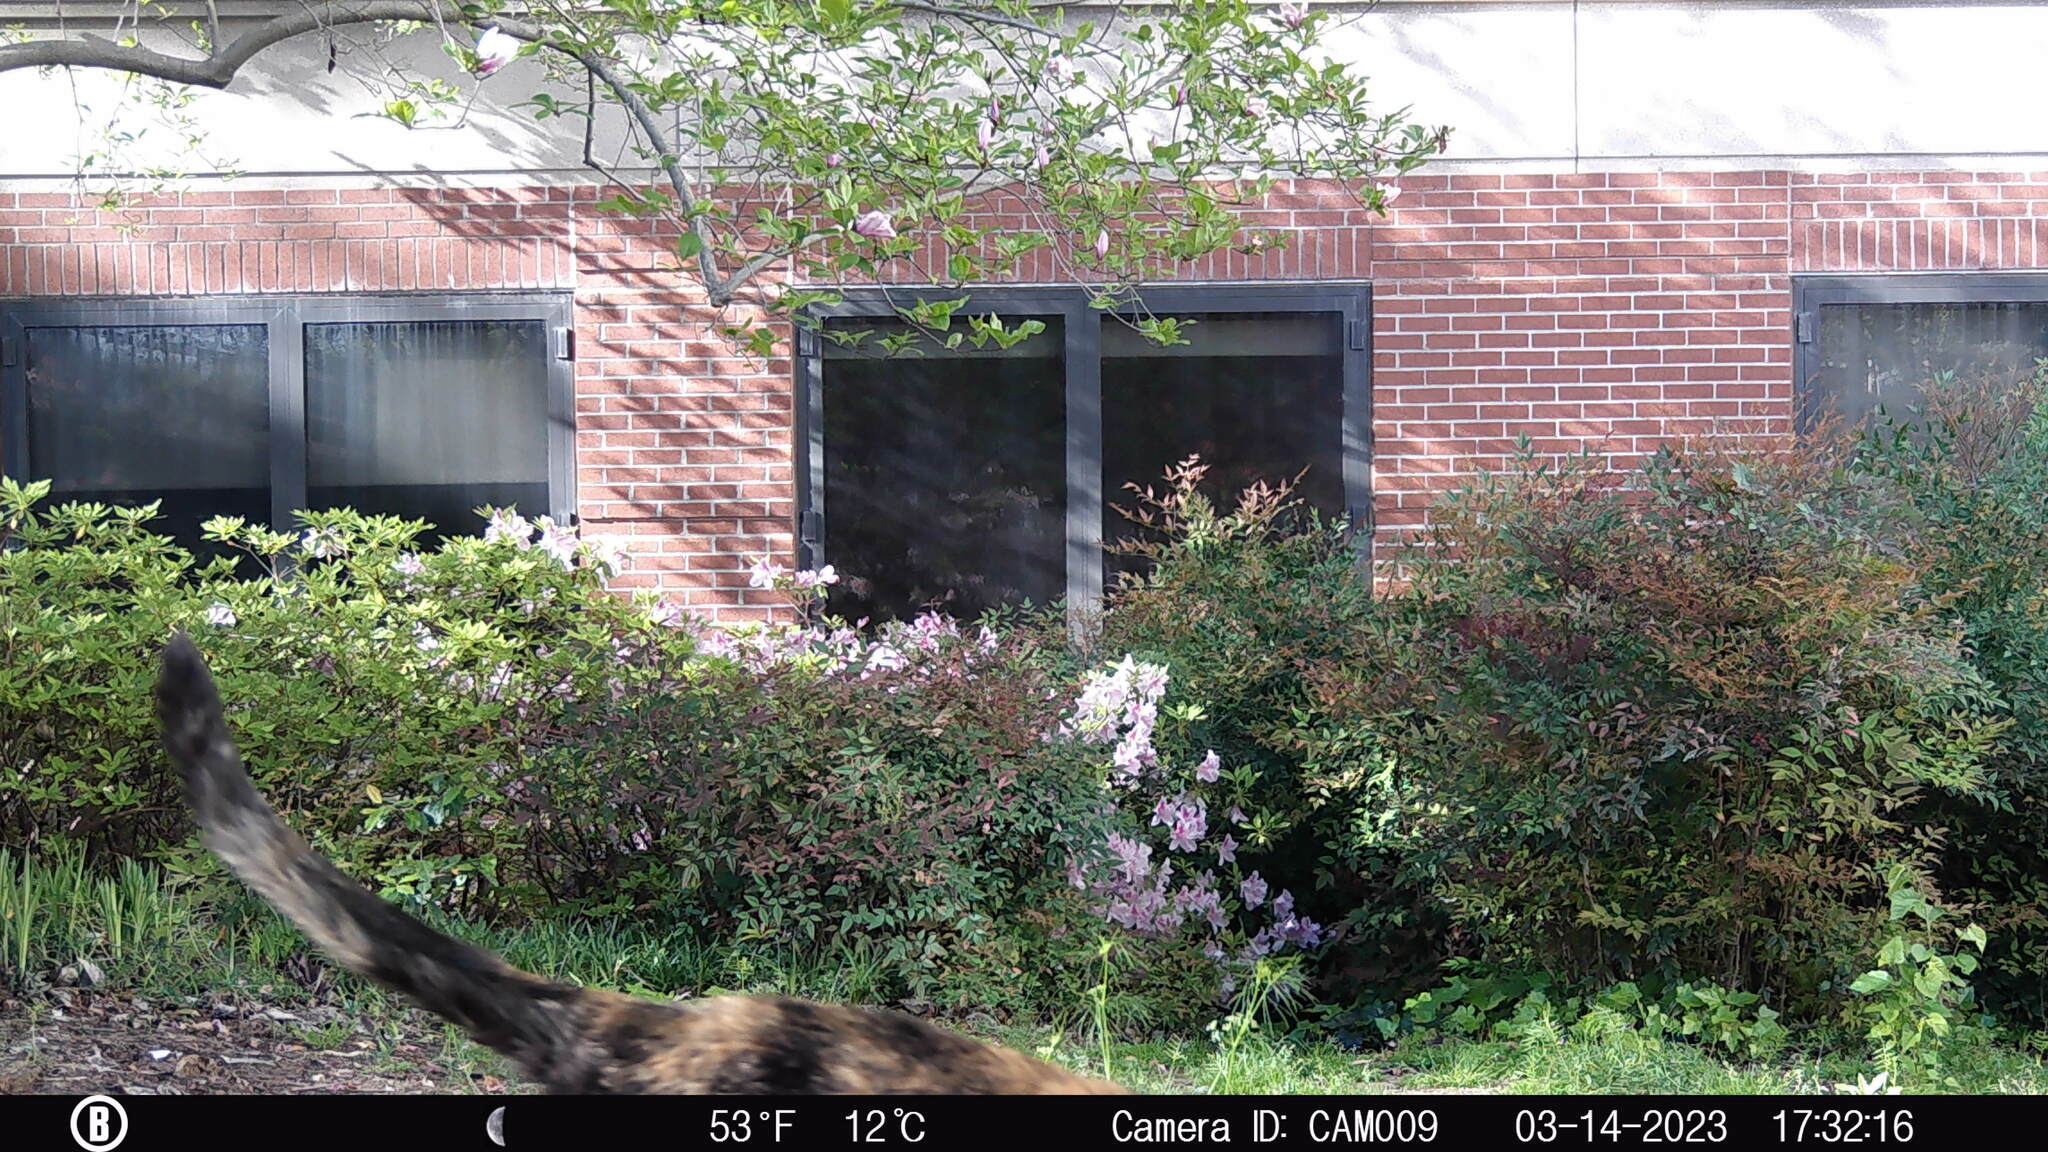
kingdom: Animalia
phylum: Chordata
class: Mammalia
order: Carnivora
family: Felidae
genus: Felis
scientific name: Felis catus
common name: Domestic cat
